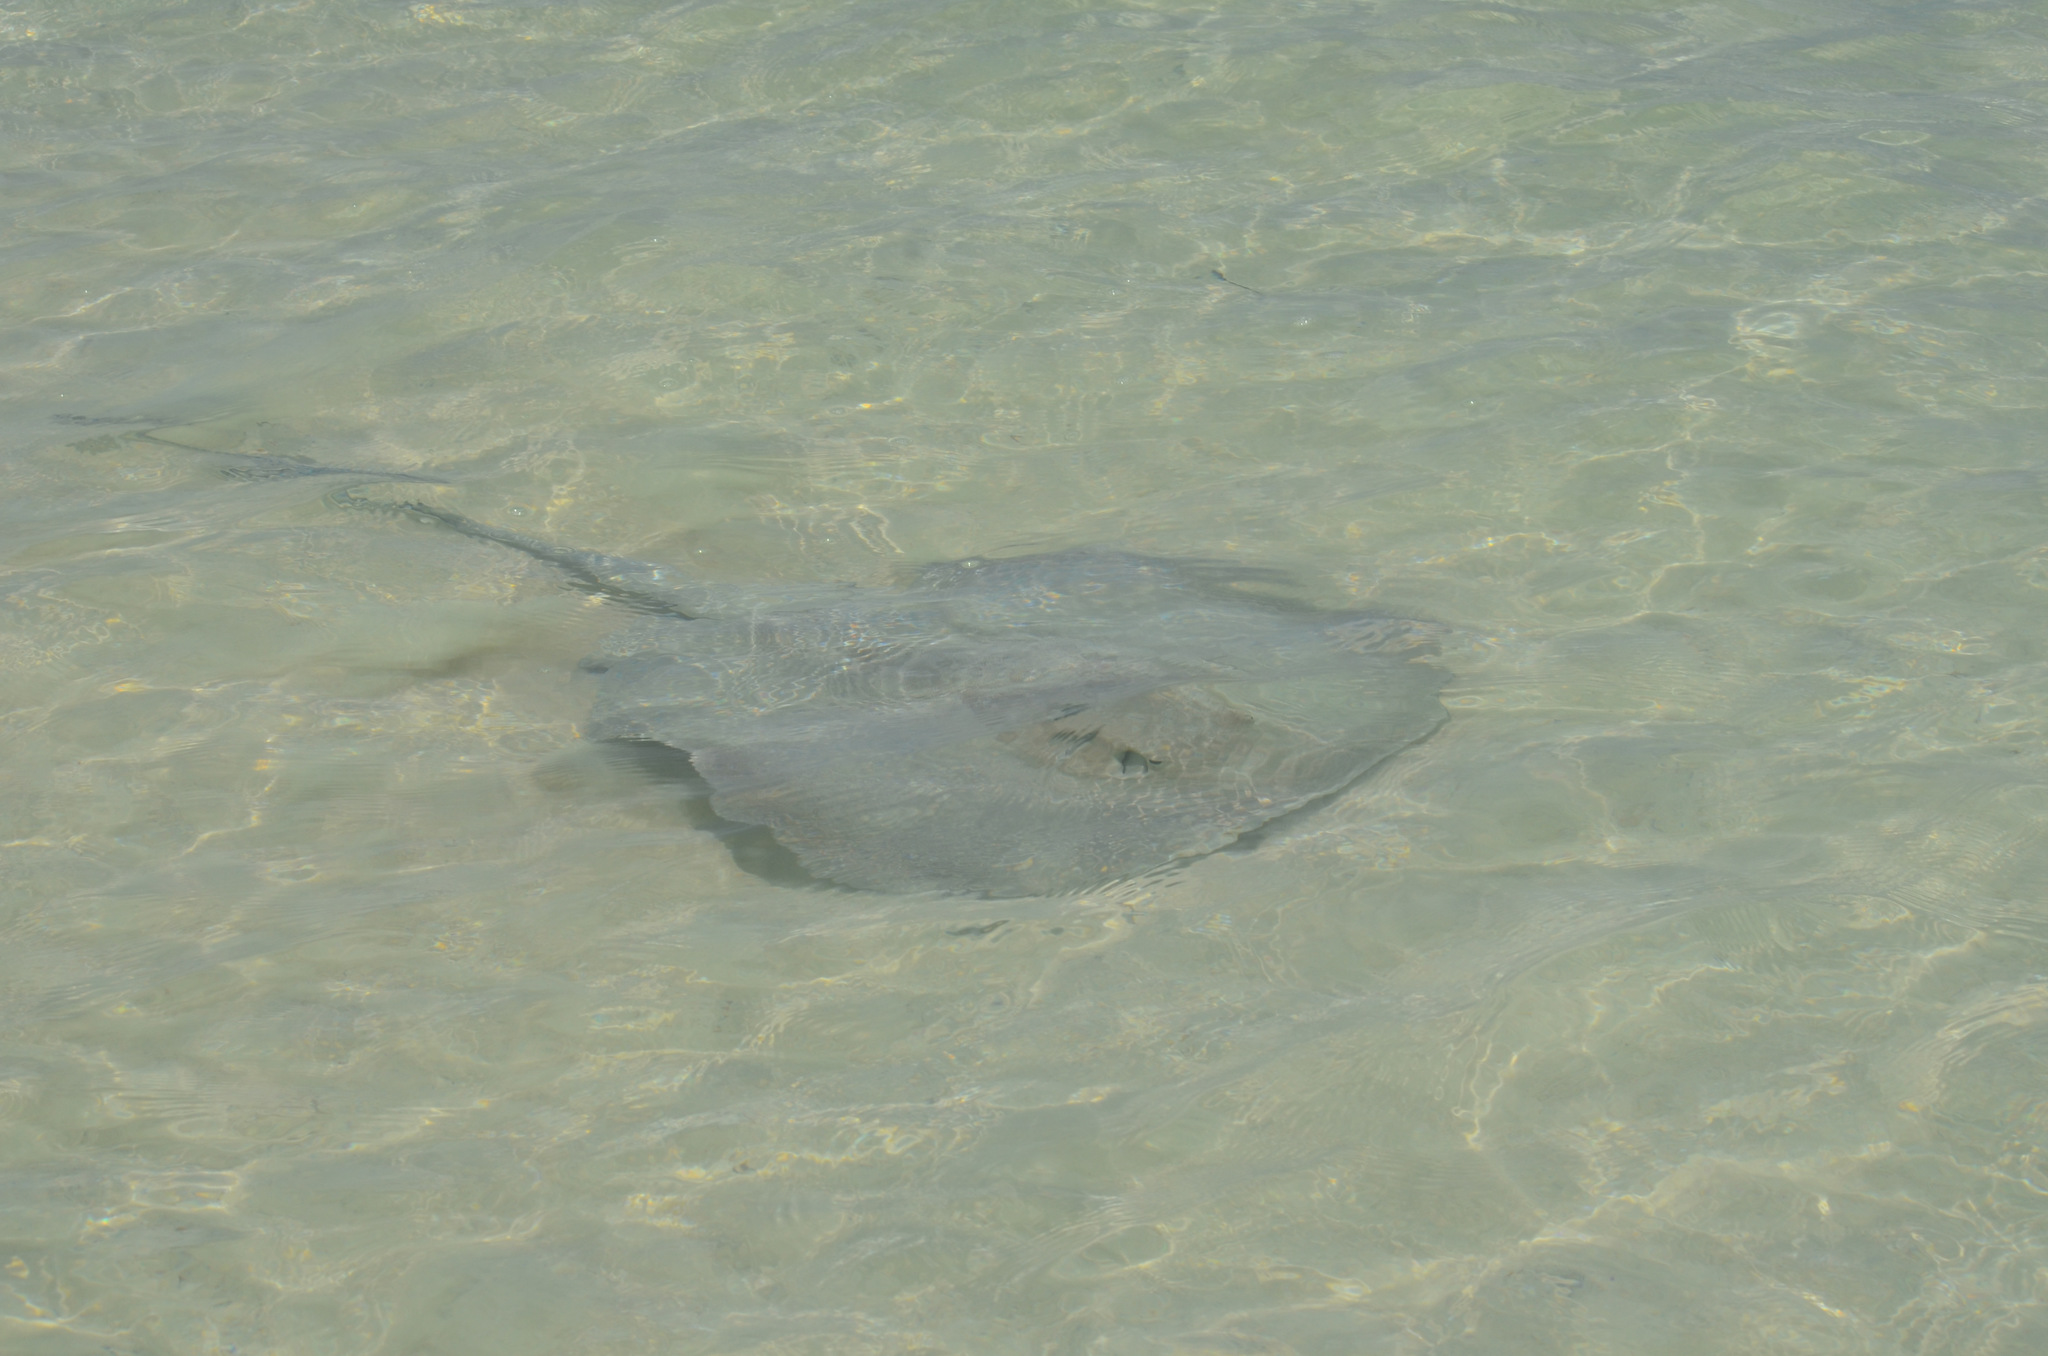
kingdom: Animalia
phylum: Chordata
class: Elasmobranchii
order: Myliobatiformes
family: Potamotrygonidae
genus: Styracura
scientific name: Styracura schmardae
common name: Atlantic chupare
